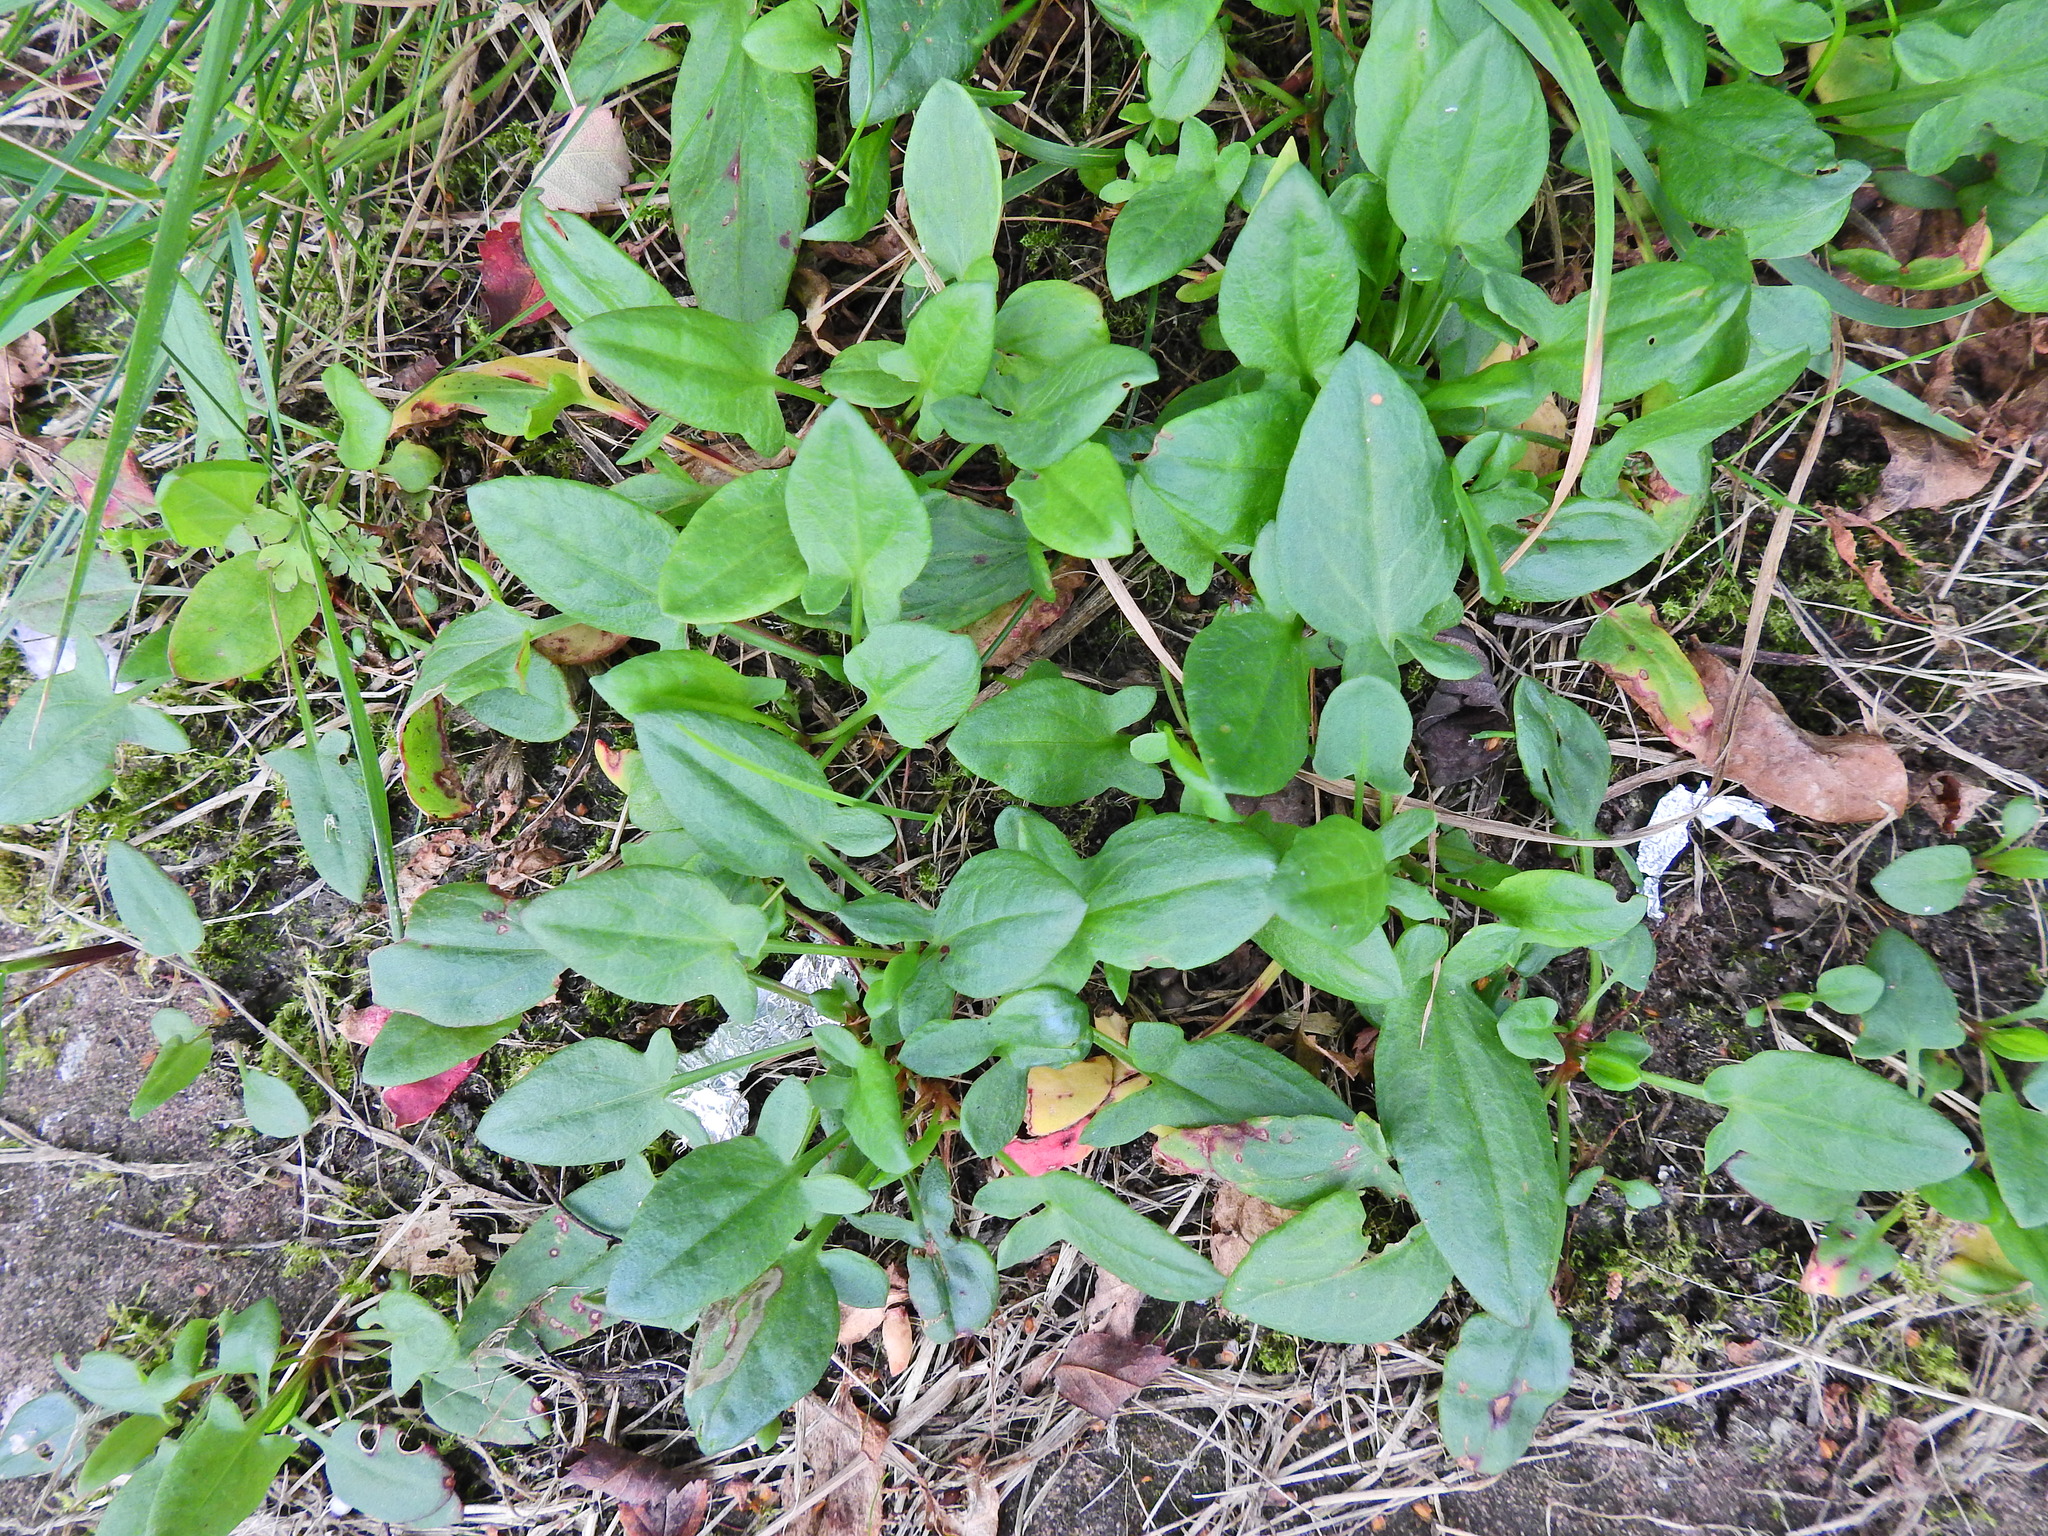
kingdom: Plantae
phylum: Tracheophyta
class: Magnoliopsida
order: Caryophyllales
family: Polygonaceae
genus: Rumex
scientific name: Rumex acetosella
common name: Common sheep sorrel
